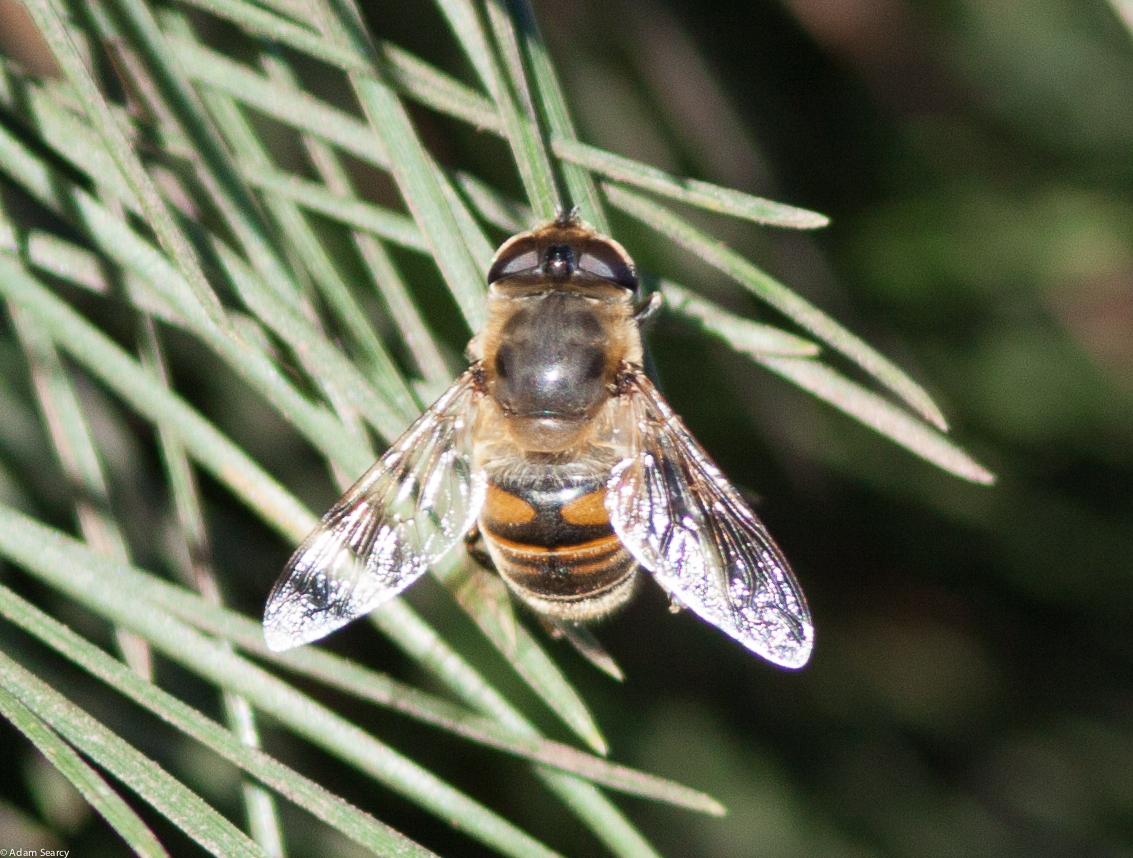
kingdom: Animalia
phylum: Arthropoda
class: Insecta
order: Diptera
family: Syrphidae
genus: Eristalis
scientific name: Eristalis tenax
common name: Drone fly
